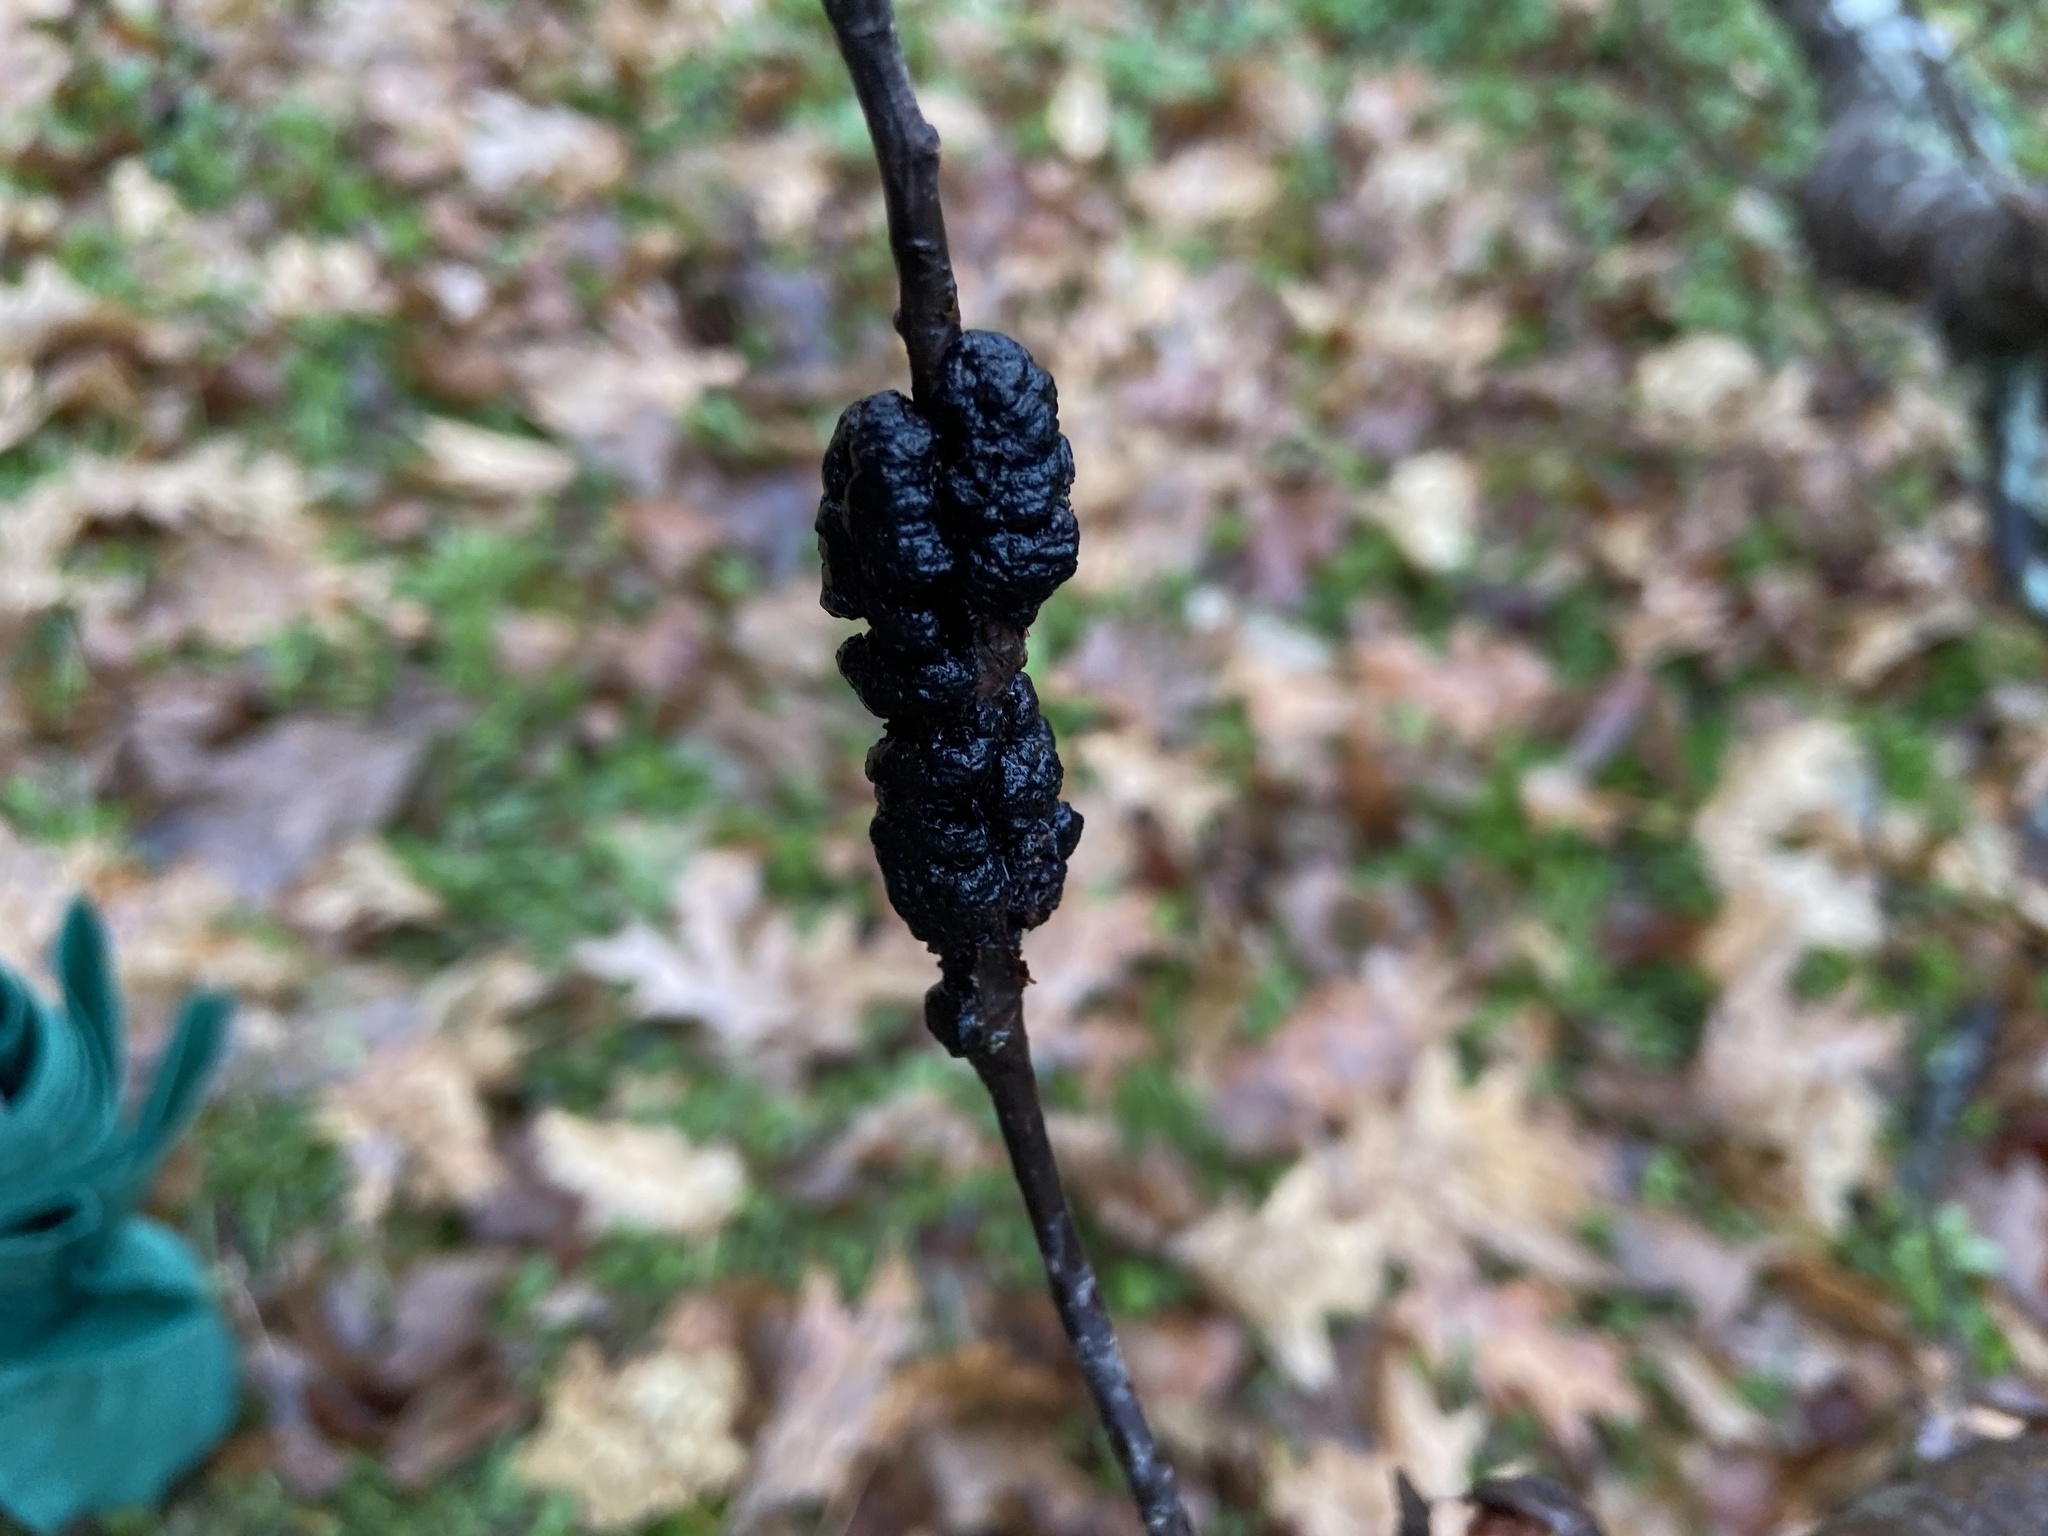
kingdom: Fungi
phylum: Ascomycota
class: Dothideomycetes
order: Venturiales
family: Venturiaceae
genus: Apiosporina
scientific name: Apiosporina morbosa
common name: Black knot
